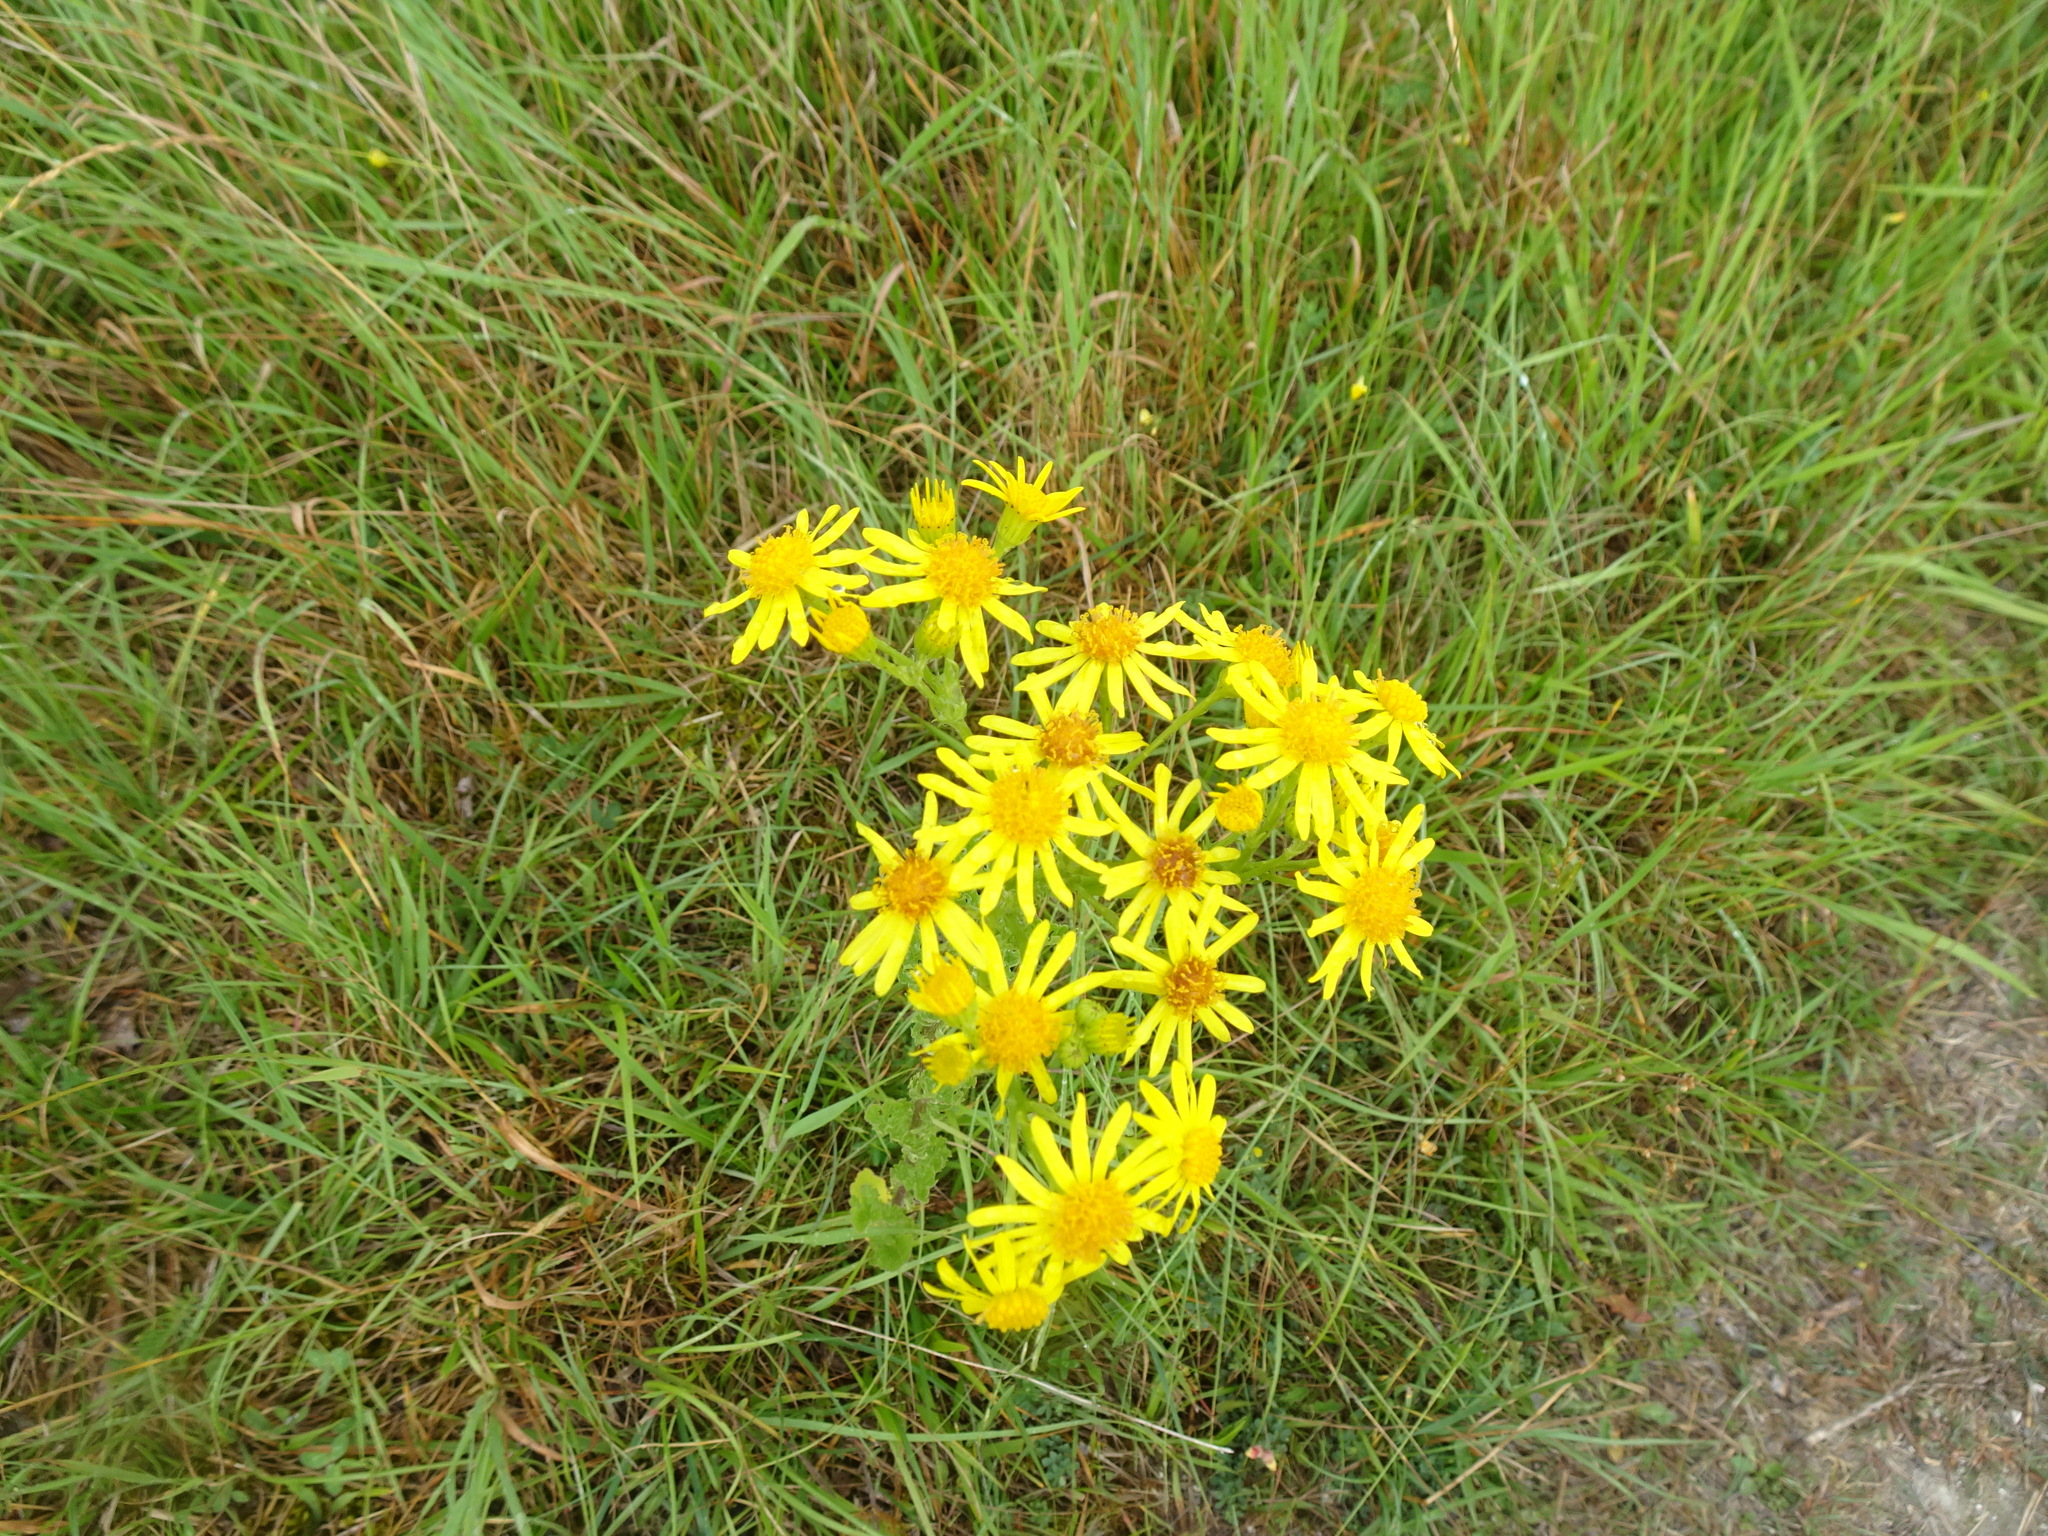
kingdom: Plantae
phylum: Tracheophyta
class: Magnoliopsida
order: Asterales
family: Asteraceae
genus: Jacobaea
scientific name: Jacobaea vulgaris
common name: Stinking willie
